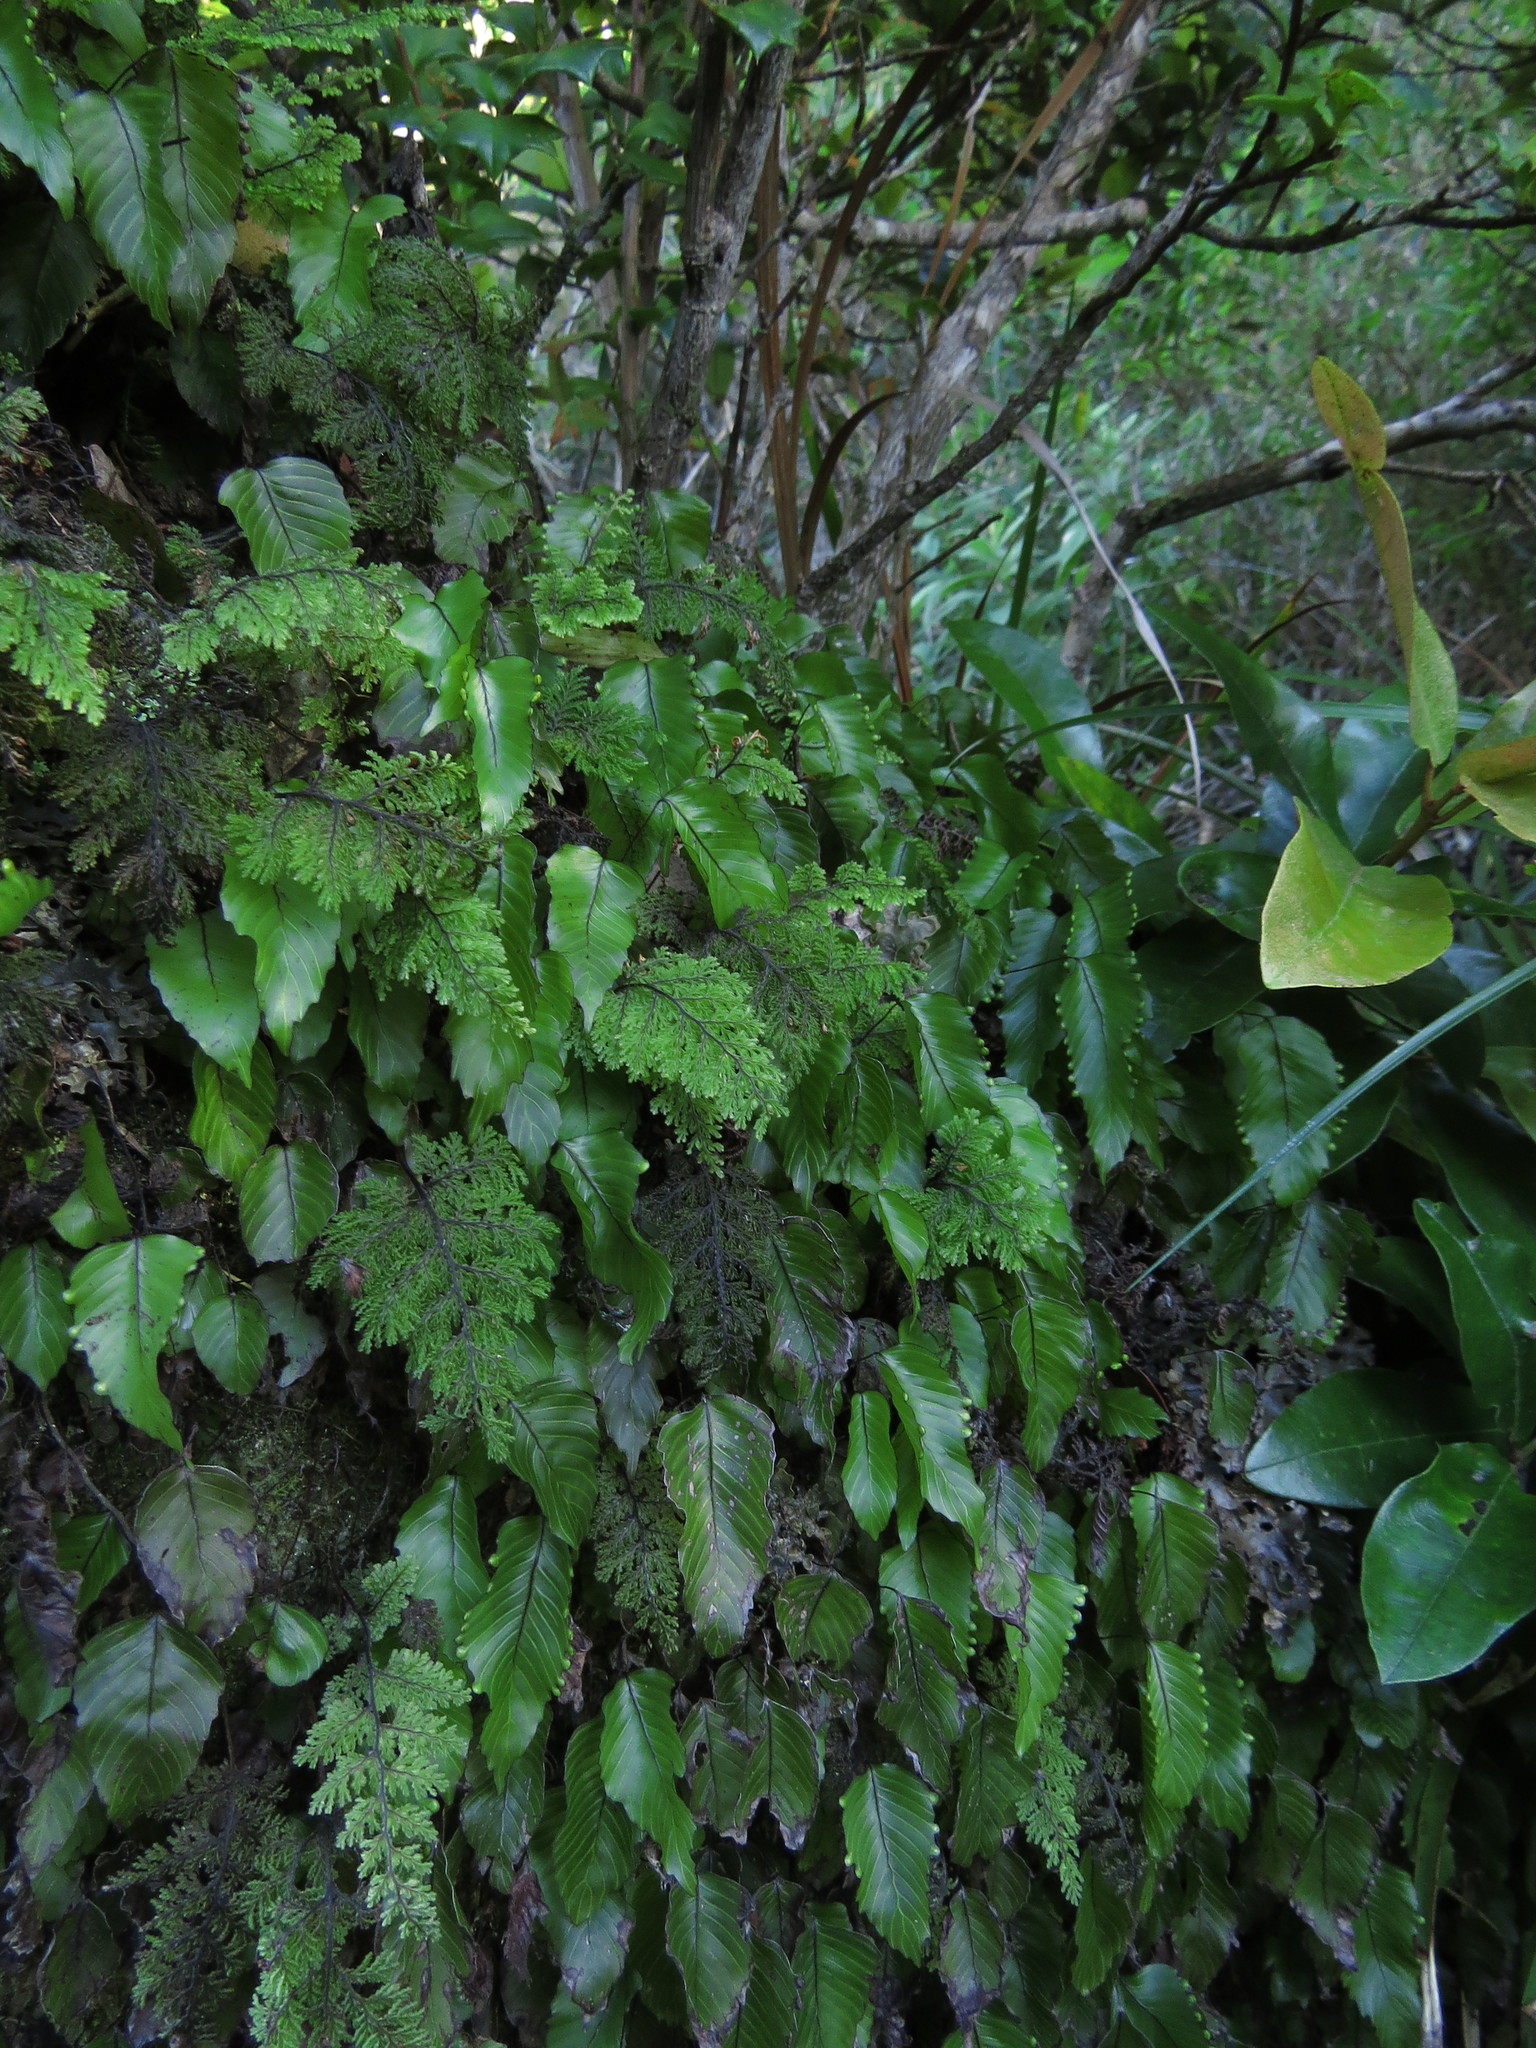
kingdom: Plantae
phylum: Tracheophyta
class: Polypodiopsida
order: Hymenophyllales
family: Hymenophyllaceae
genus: Hymenophyllum
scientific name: Hymenophyllum cruentum
